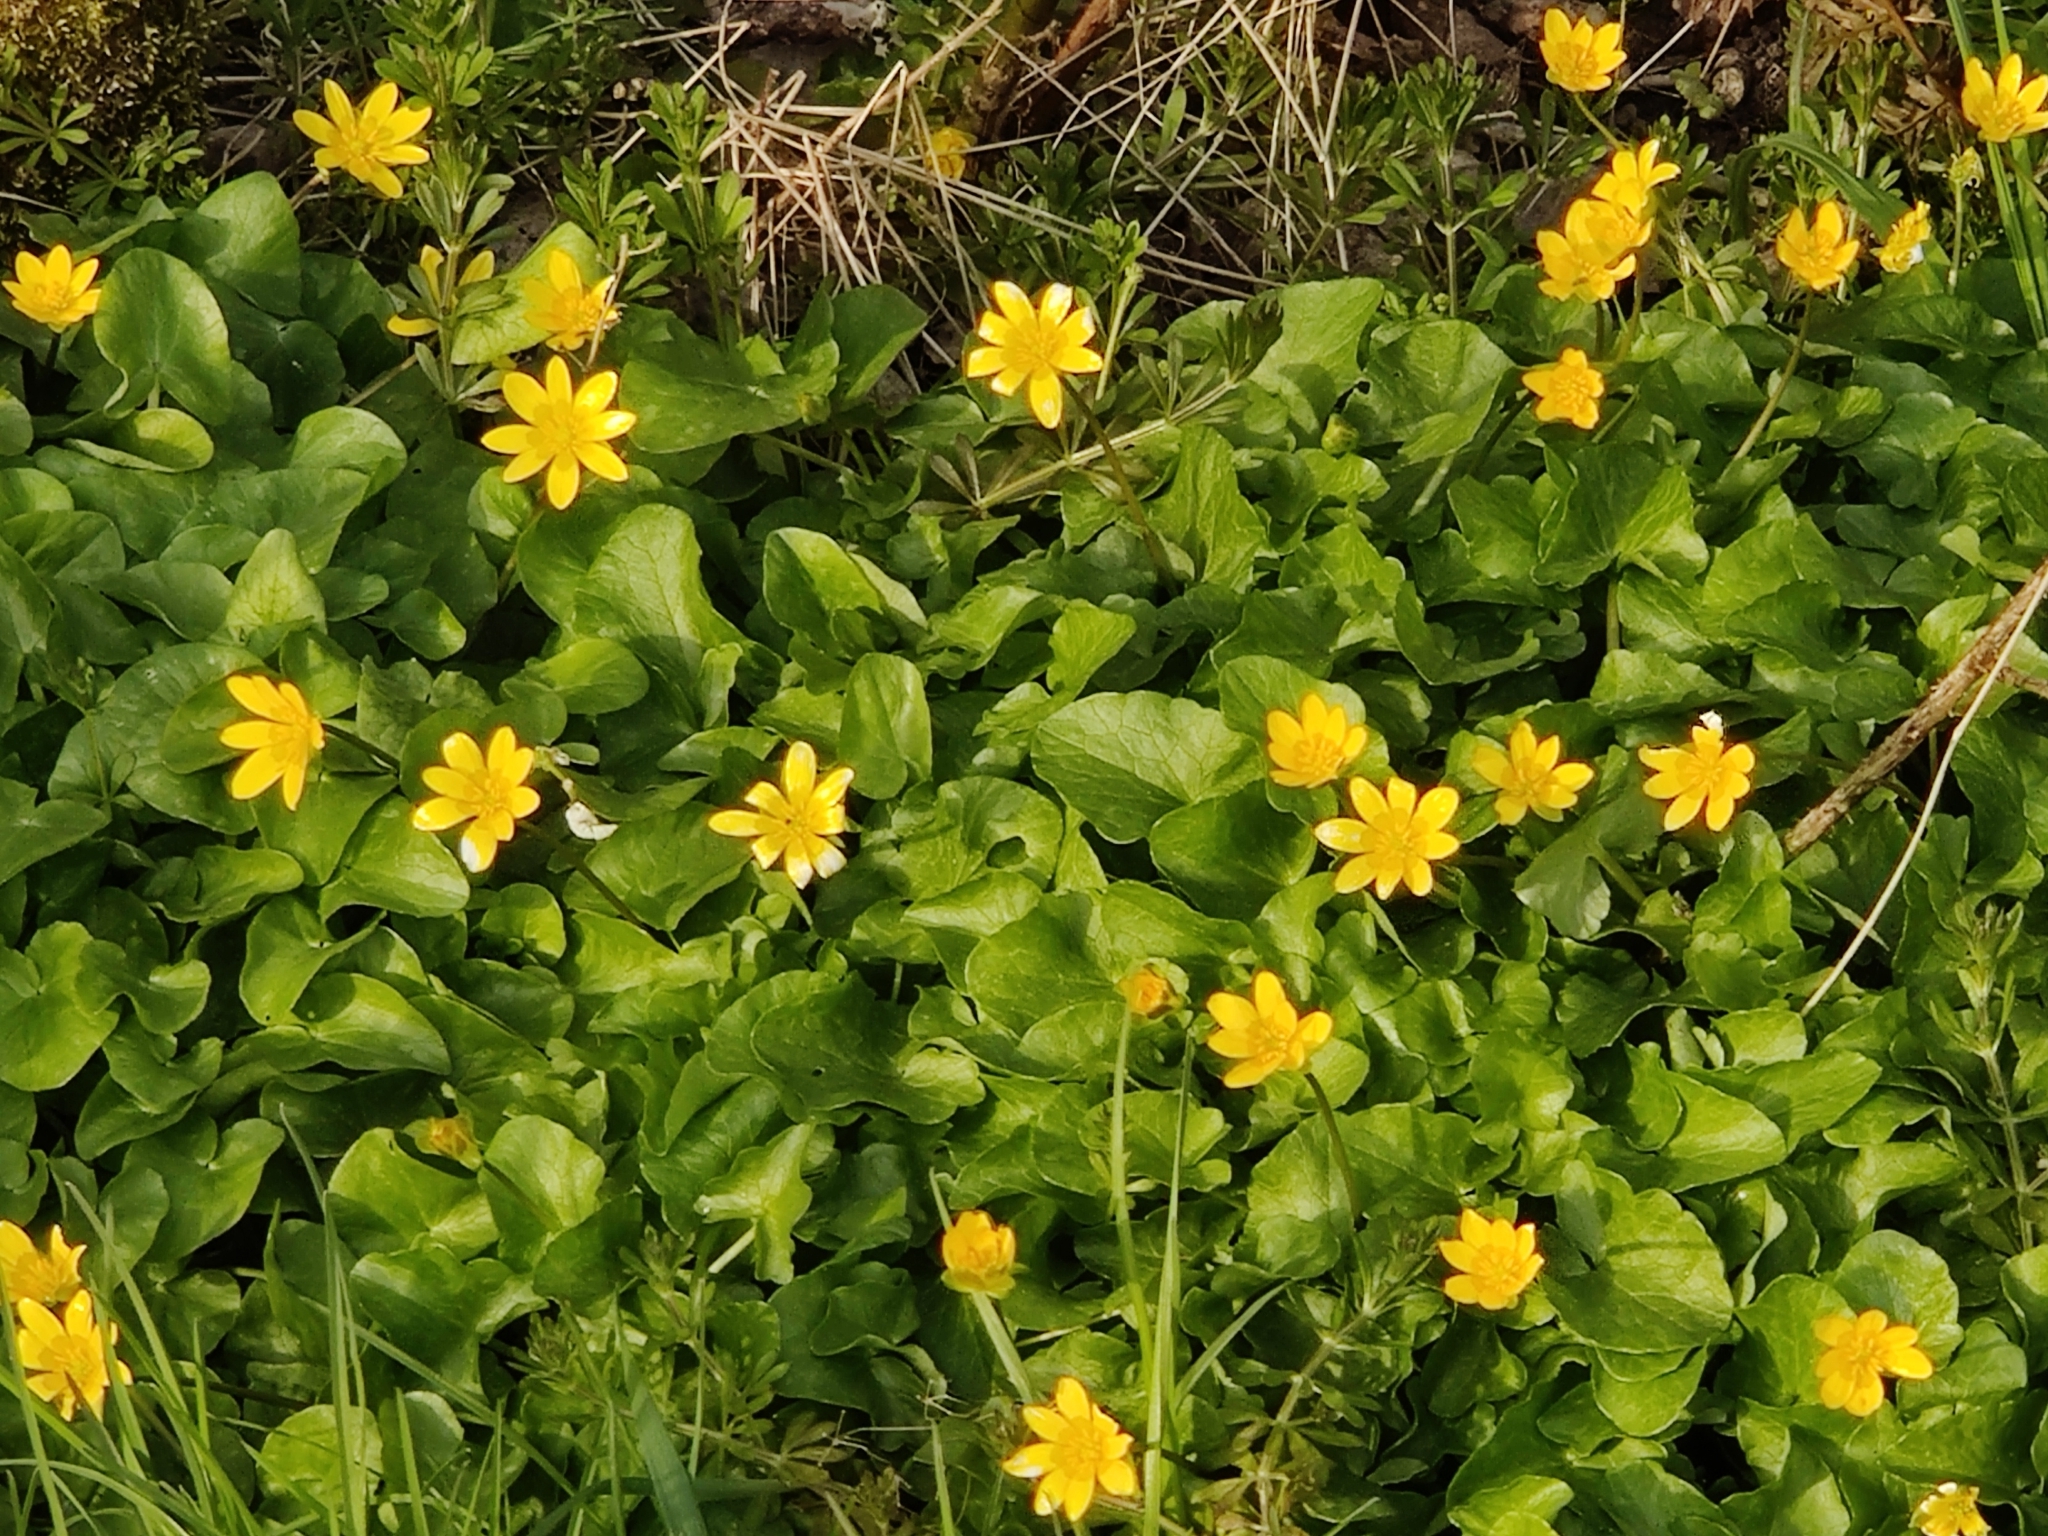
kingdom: Plantae
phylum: Tracheophyta
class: Magnoliopsida
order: Ranunculales
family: Ranunculaceae
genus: Ficaria
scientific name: Ficaria verna
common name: Lesser celandine
